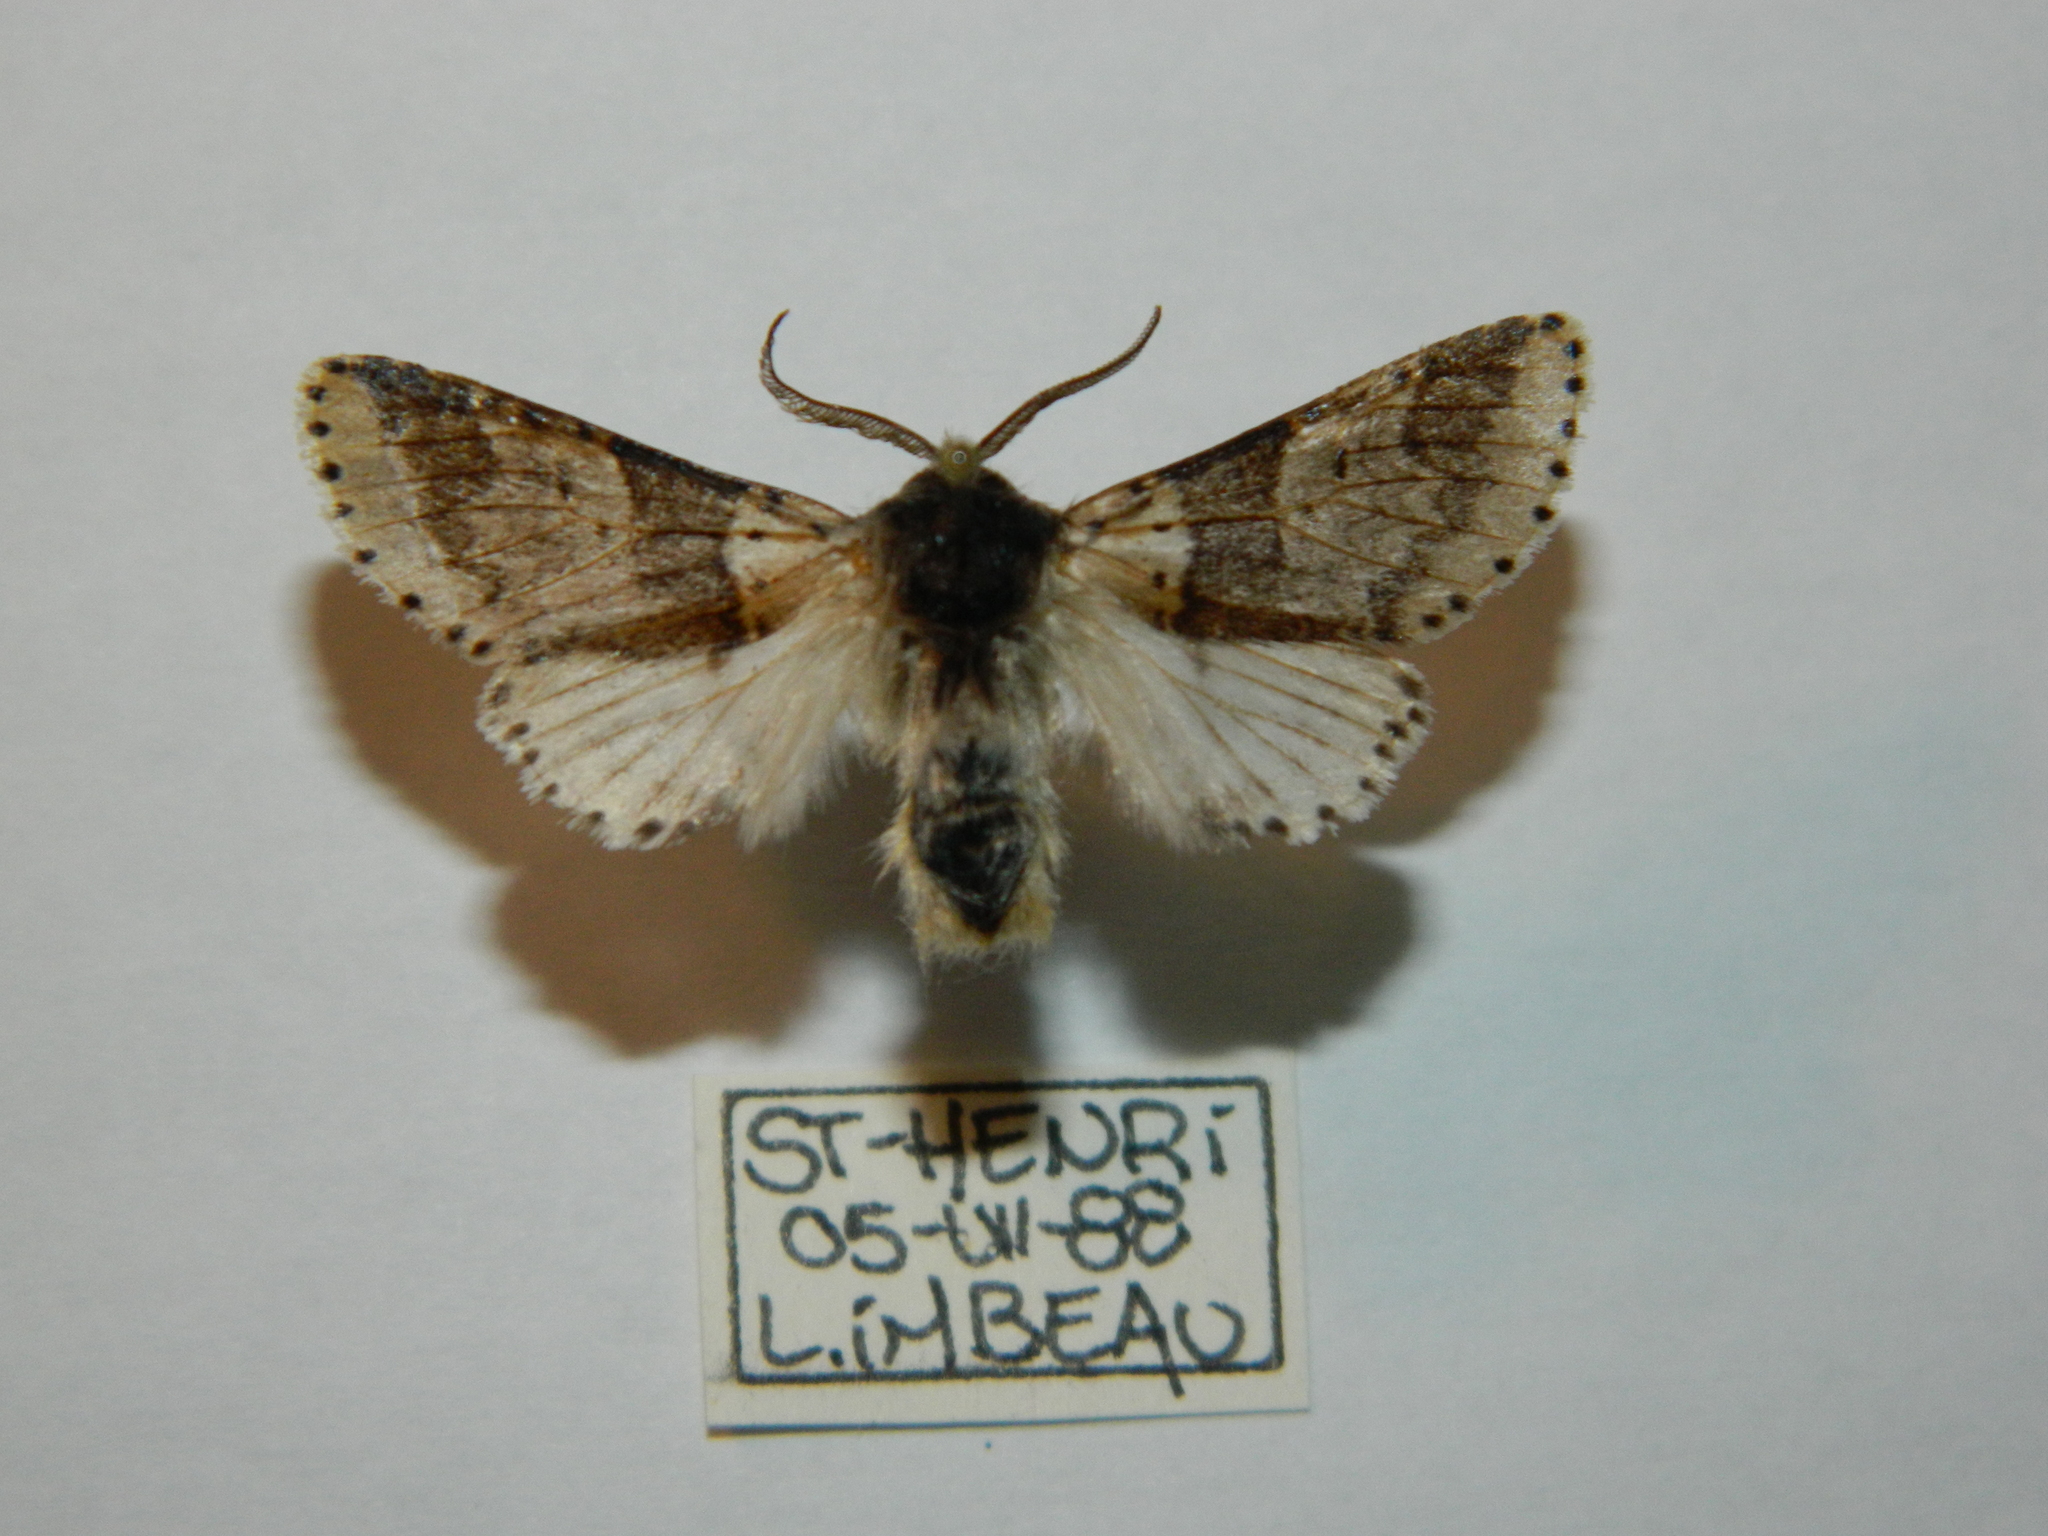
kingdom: Animalia
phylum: Arthropoda
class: Insecta
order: Lepidoptera
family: Notodontidae
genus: Furcula
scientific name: Furcula occidentalis
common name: Western furcula moth
